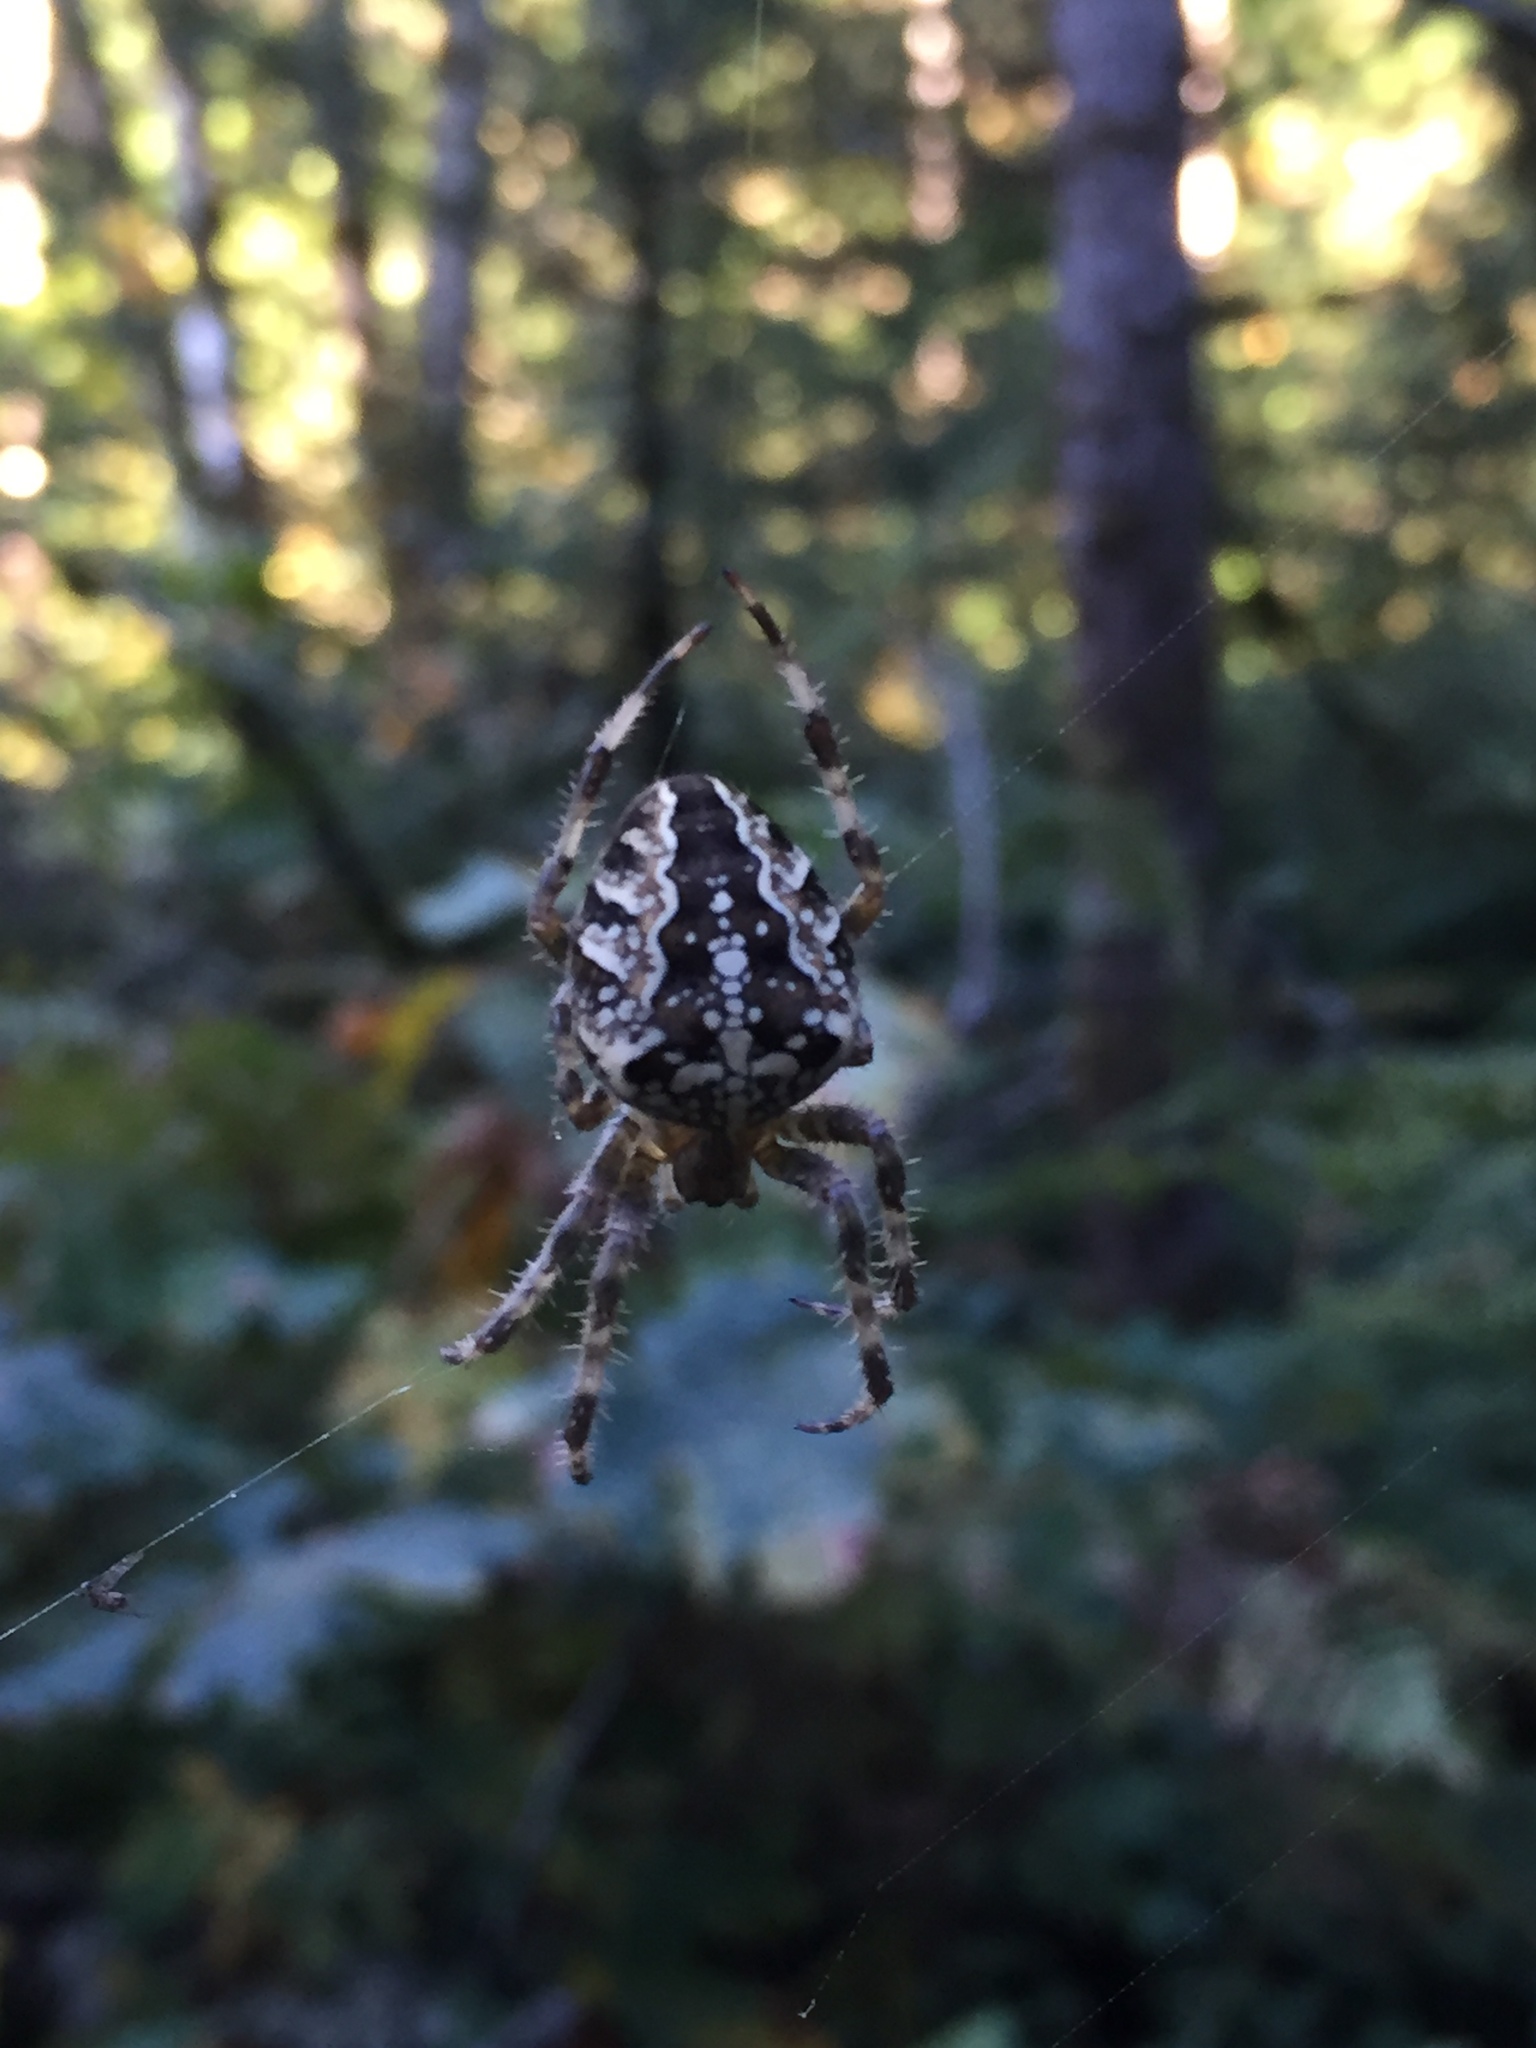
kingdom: Animalia
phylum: Arthropoda
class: Arachnida
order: Araneae
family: Araneidae
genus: Araneus
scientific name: Araneus diadematus
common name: Cross orbweaver
